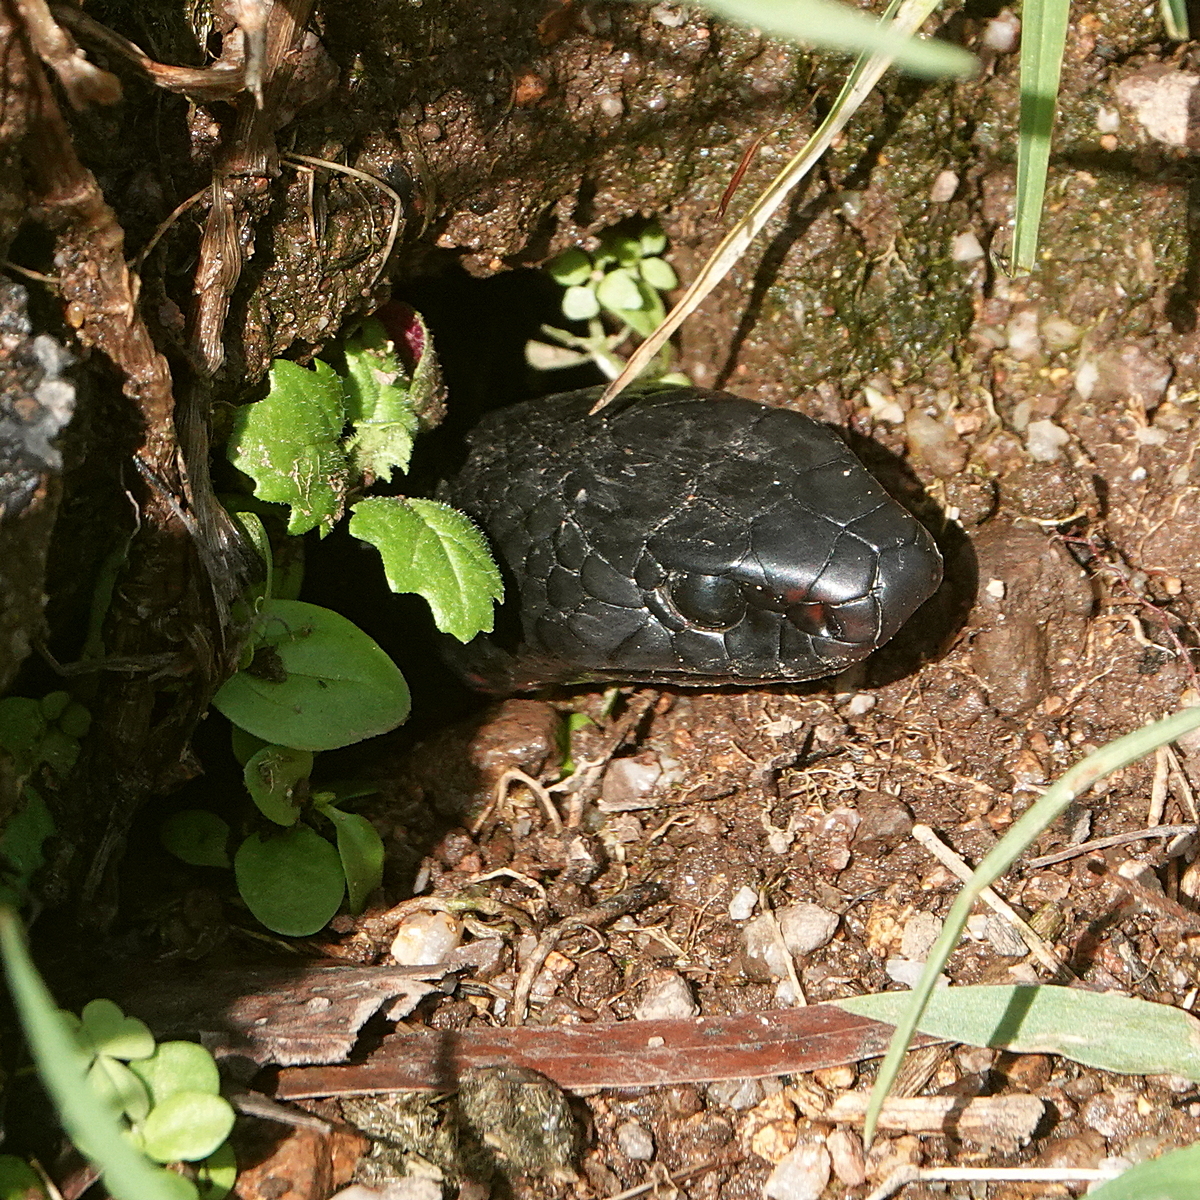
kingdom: Animalia
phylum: Chordata
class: Squamata
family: Elapidae
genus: Pseudechis
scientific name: Pseudechis porphyriacus
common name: Australian black snake
